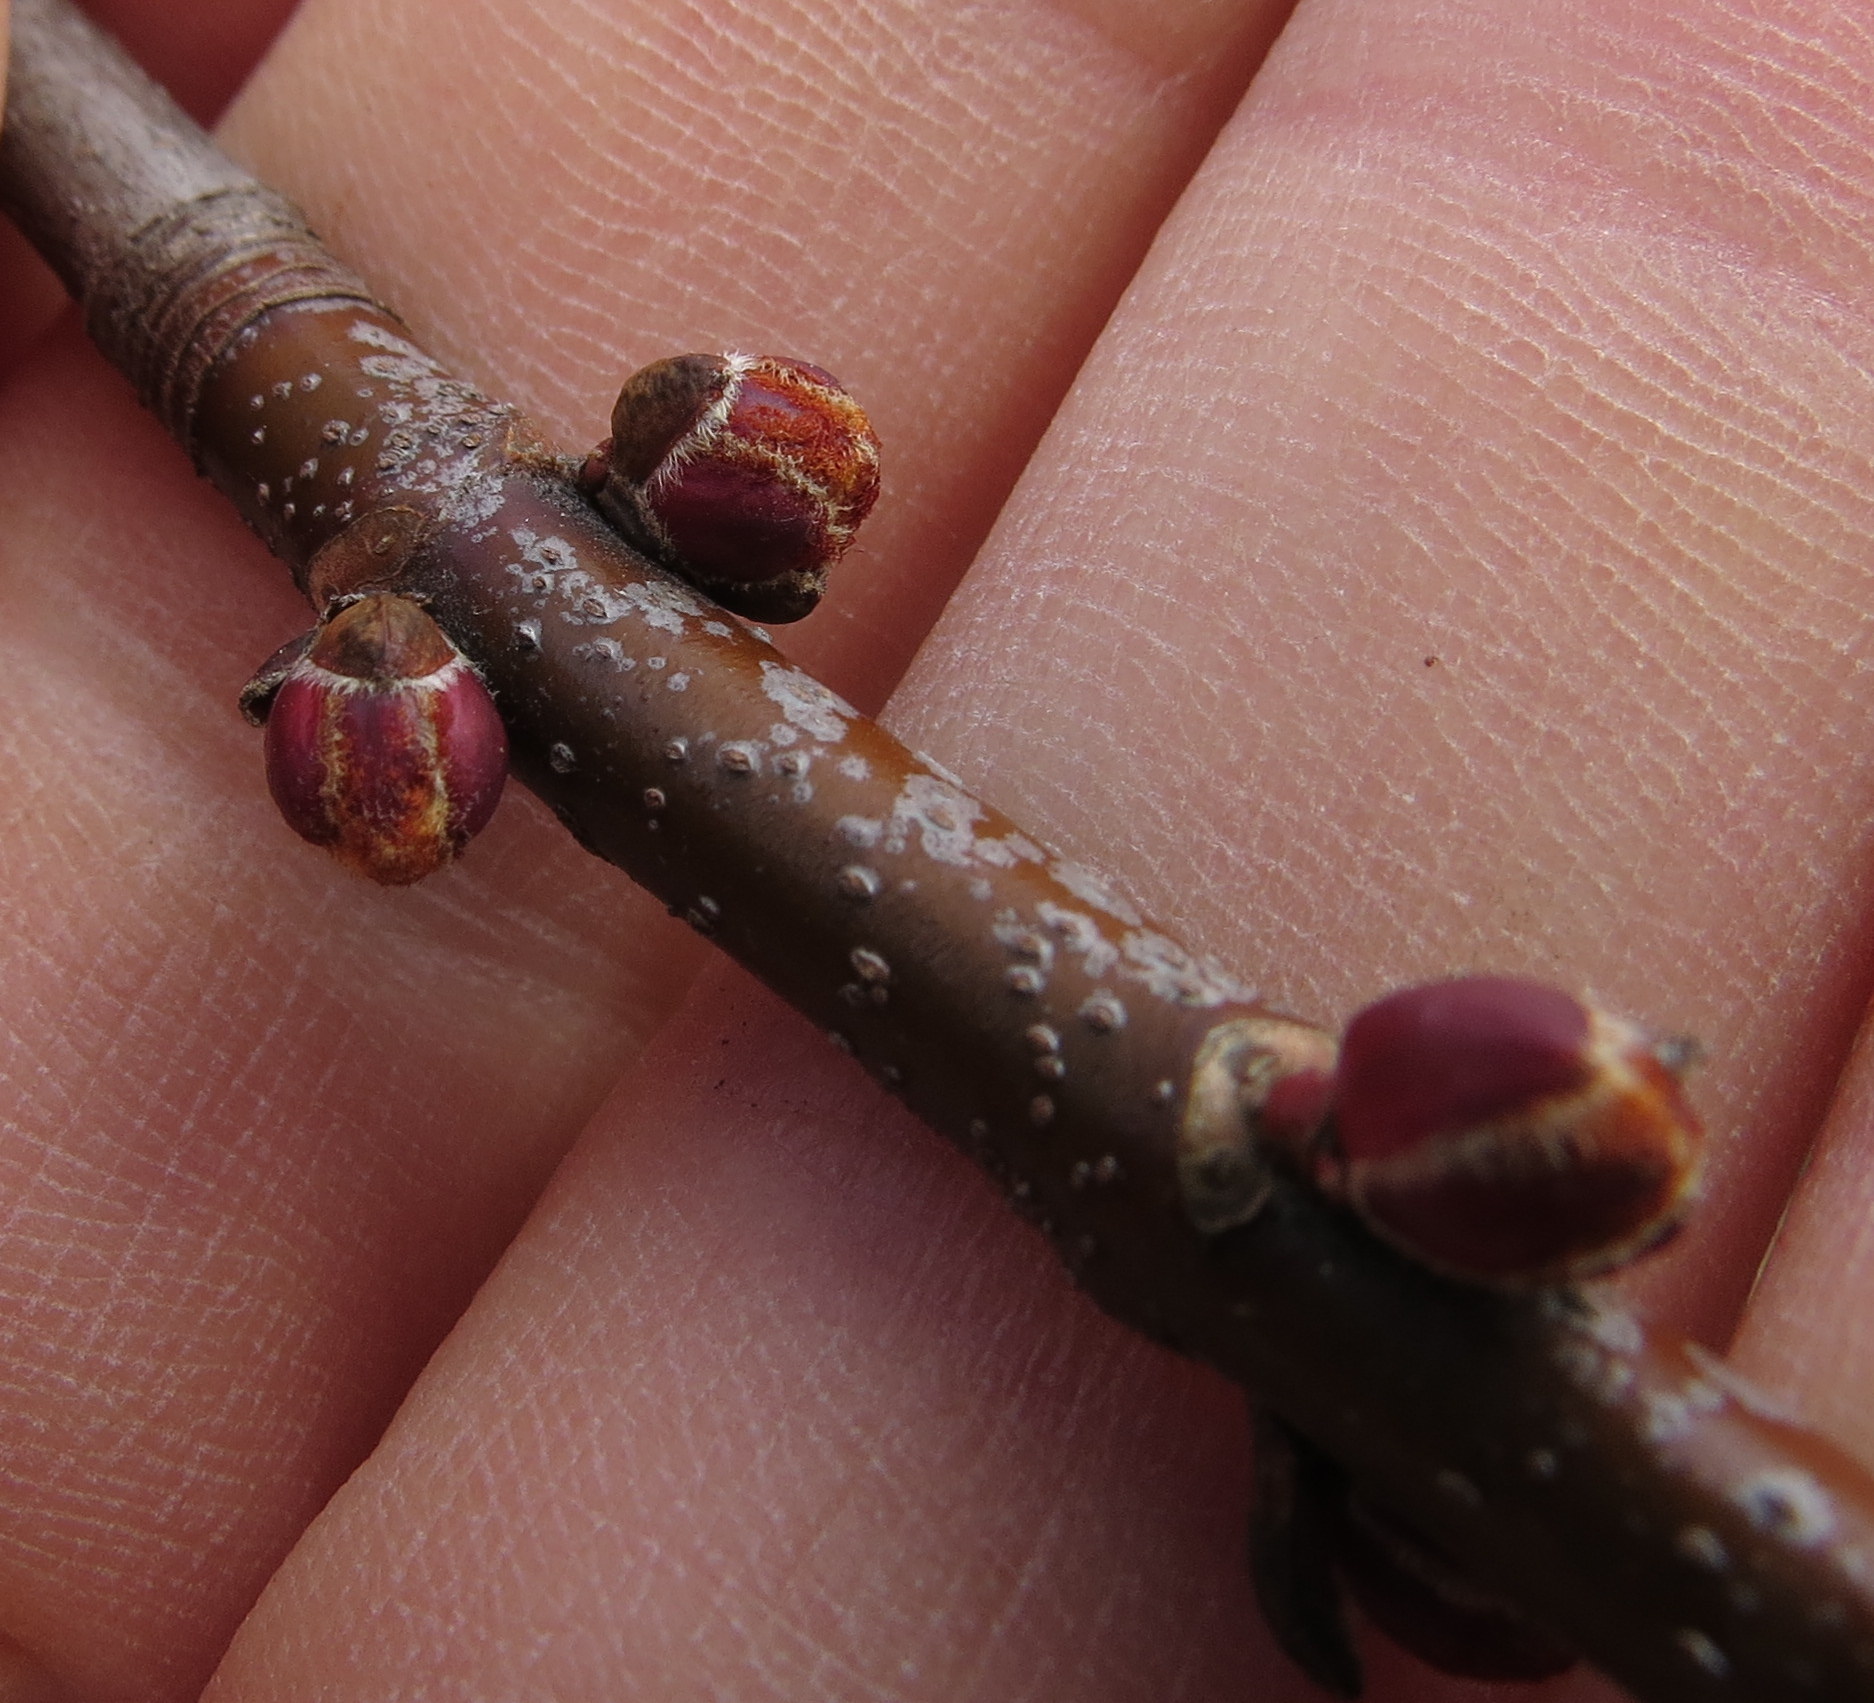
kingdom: Plantae
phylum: Tracheophyta
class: Magnoliopsida
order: Sapindales
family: Sapindaceae
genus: Acer
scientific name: Acer saccharinum
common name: Silver maple
